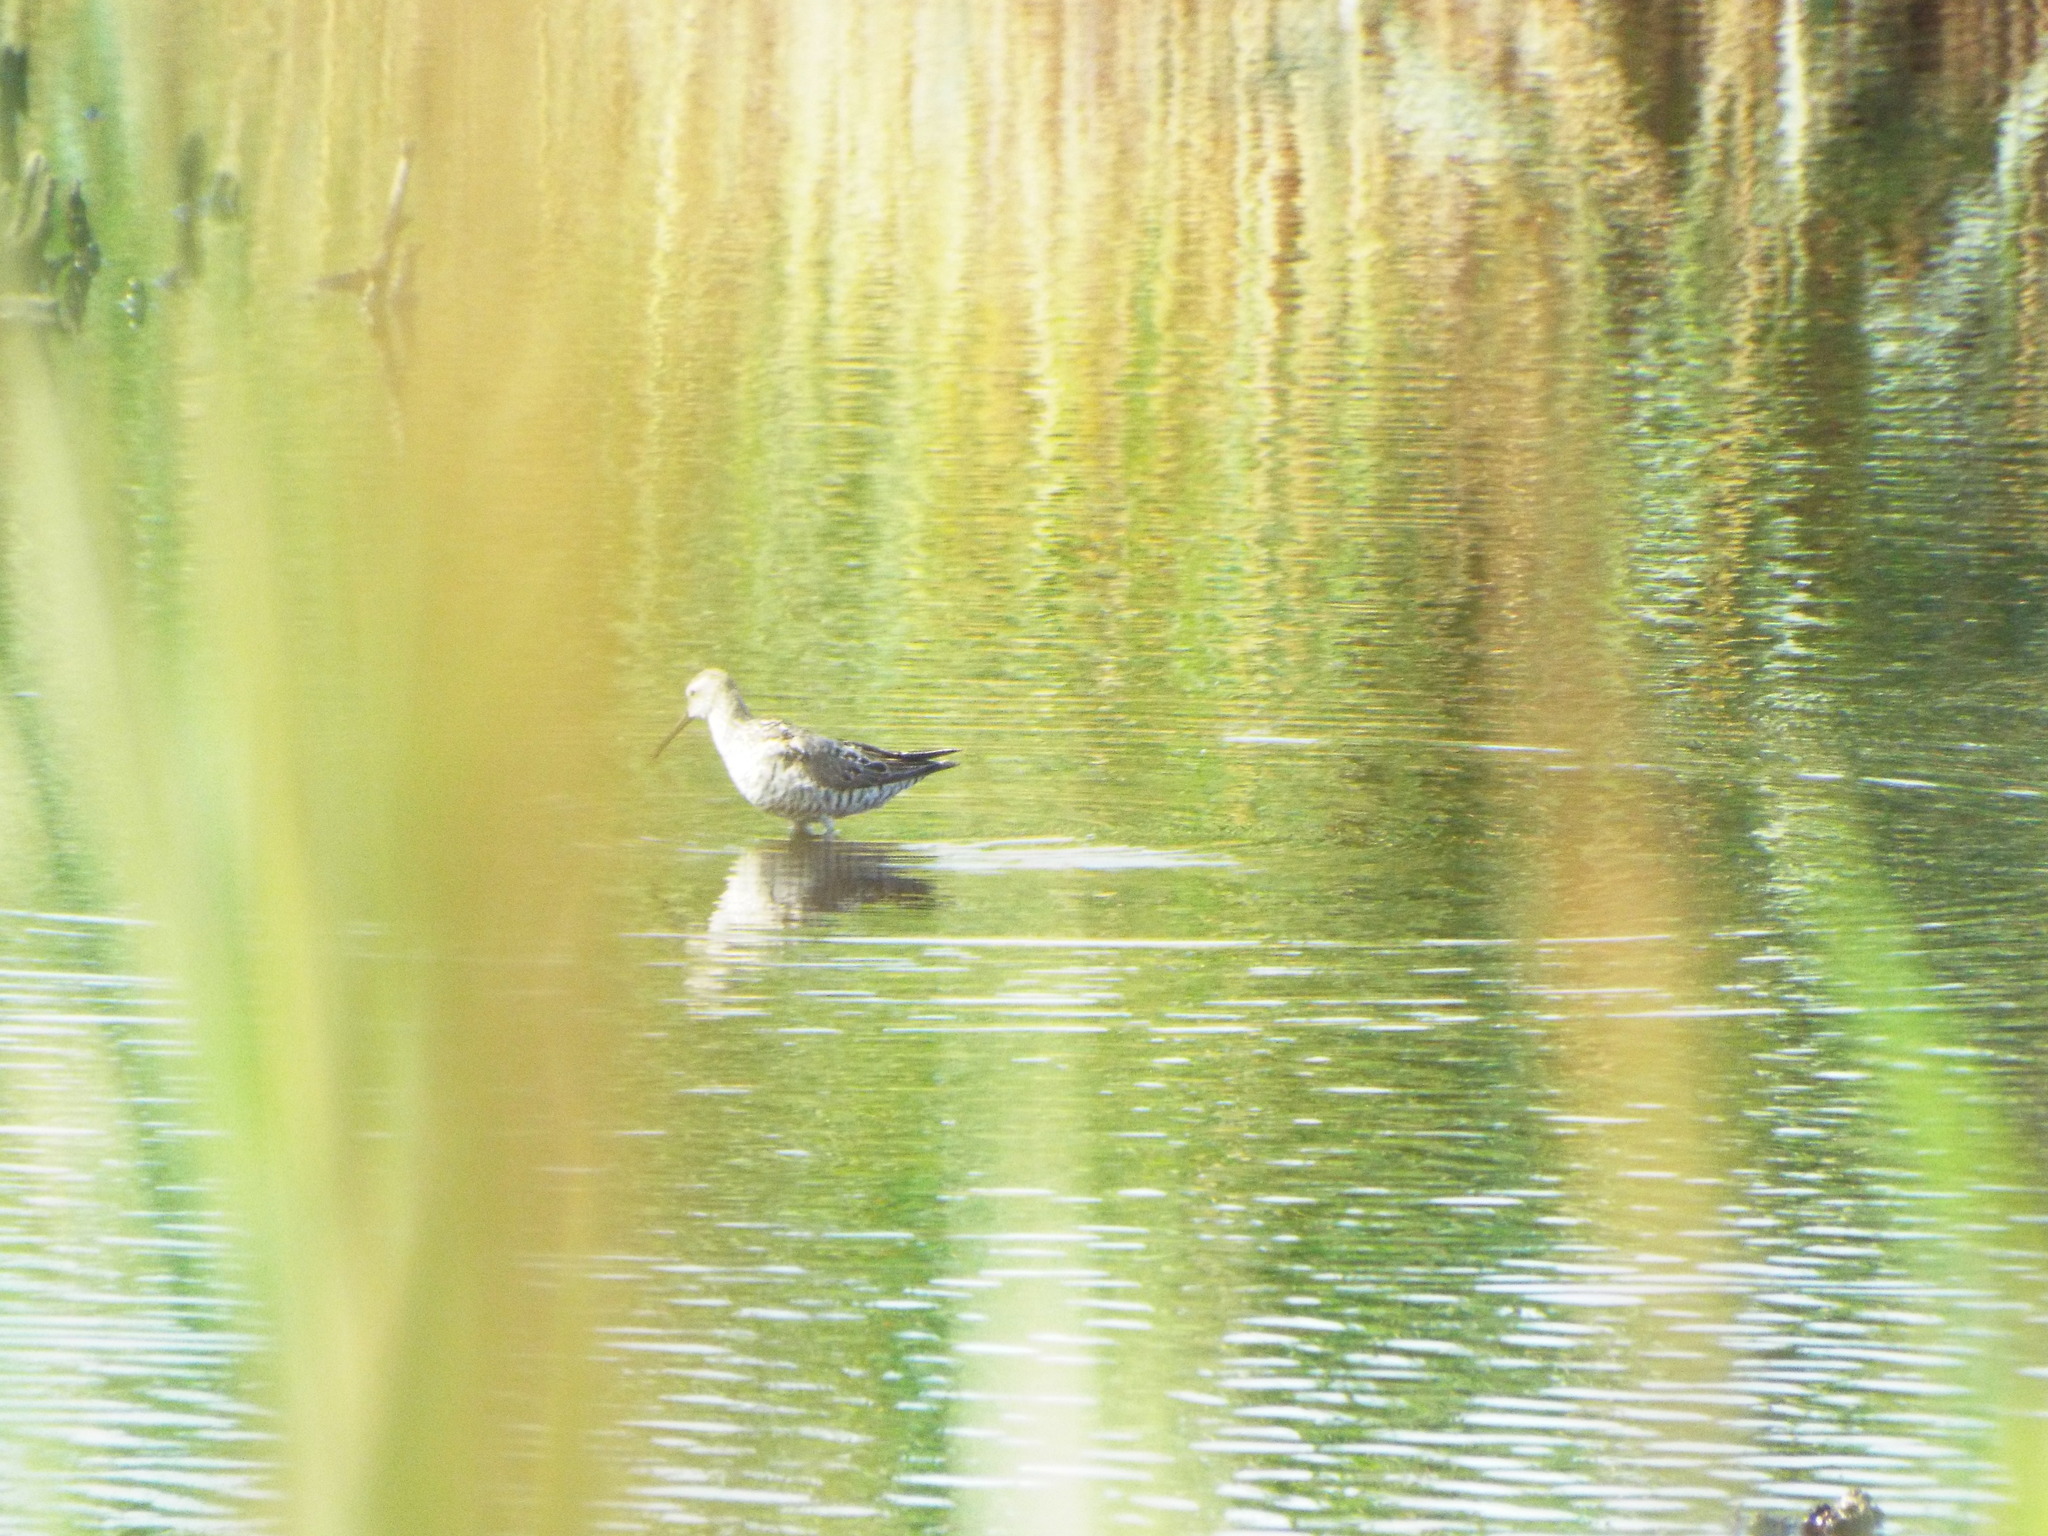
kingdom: Animalia
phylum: Chordata
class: Aves
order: Charadriiformes
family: Scolopacidae
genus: Calidris
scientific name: Calidris himantopus
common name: Stilt sandpiper
